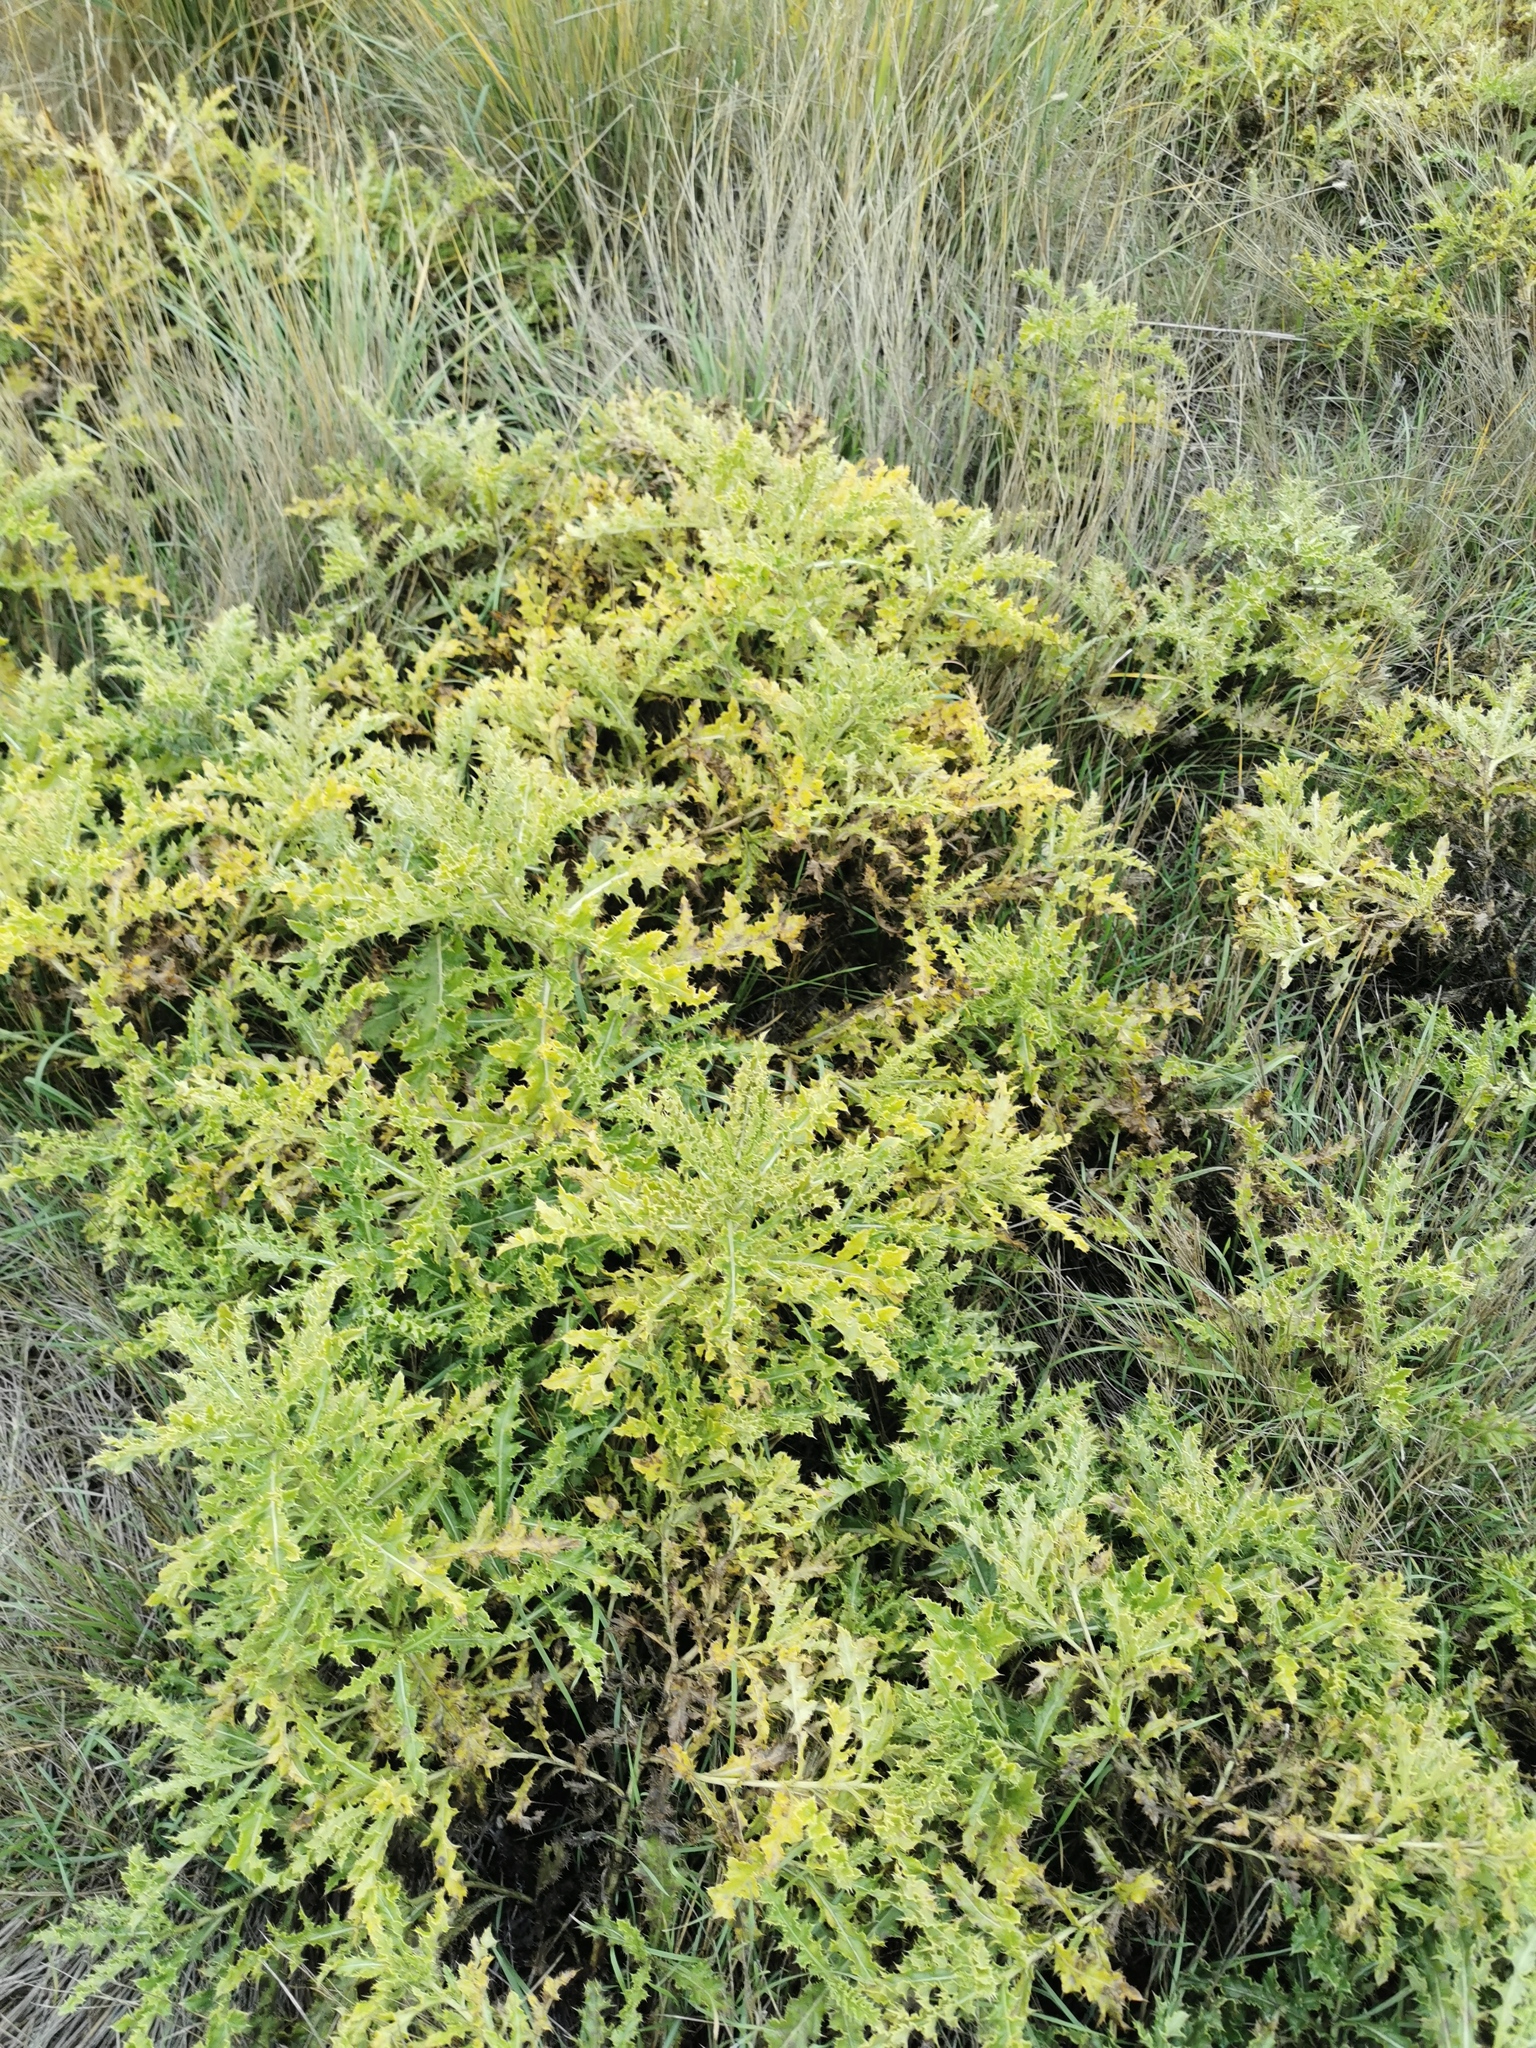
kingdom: Plantae
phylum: Tracheophyta
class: Magnoliopsida
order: Asterales
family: Asteraceae
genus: Cirsium
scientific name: Cirsium arvense
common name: Creeping thistle
